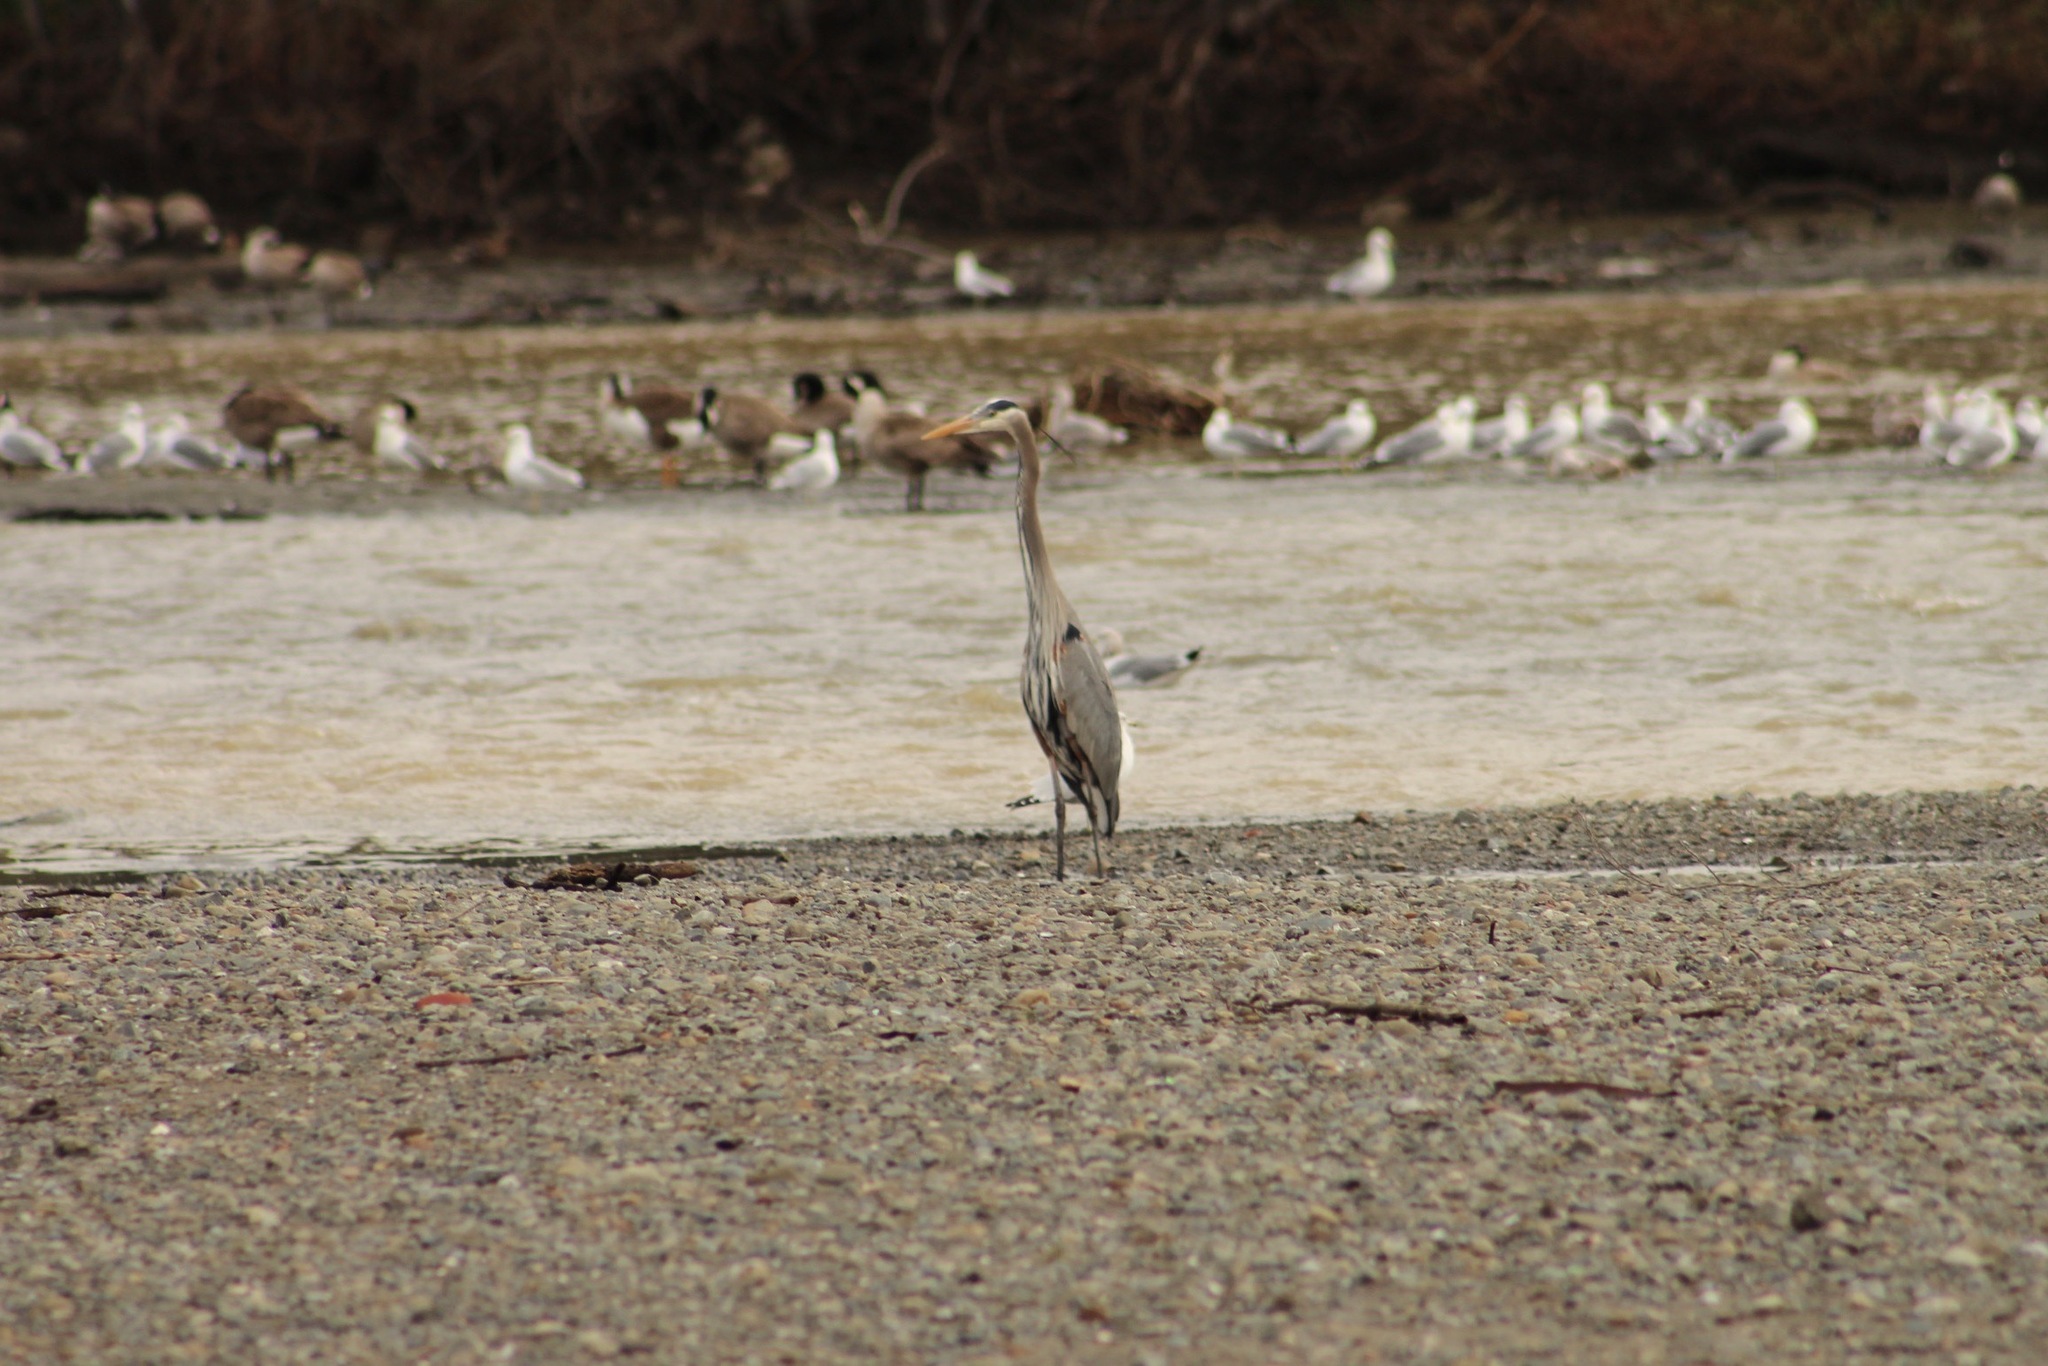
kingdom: Animalia
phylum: Chordata
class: Aves
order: Pelecaniformes
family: Ardeidae
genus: Ardea
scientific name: Ardea herodias
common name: Great blue heron
